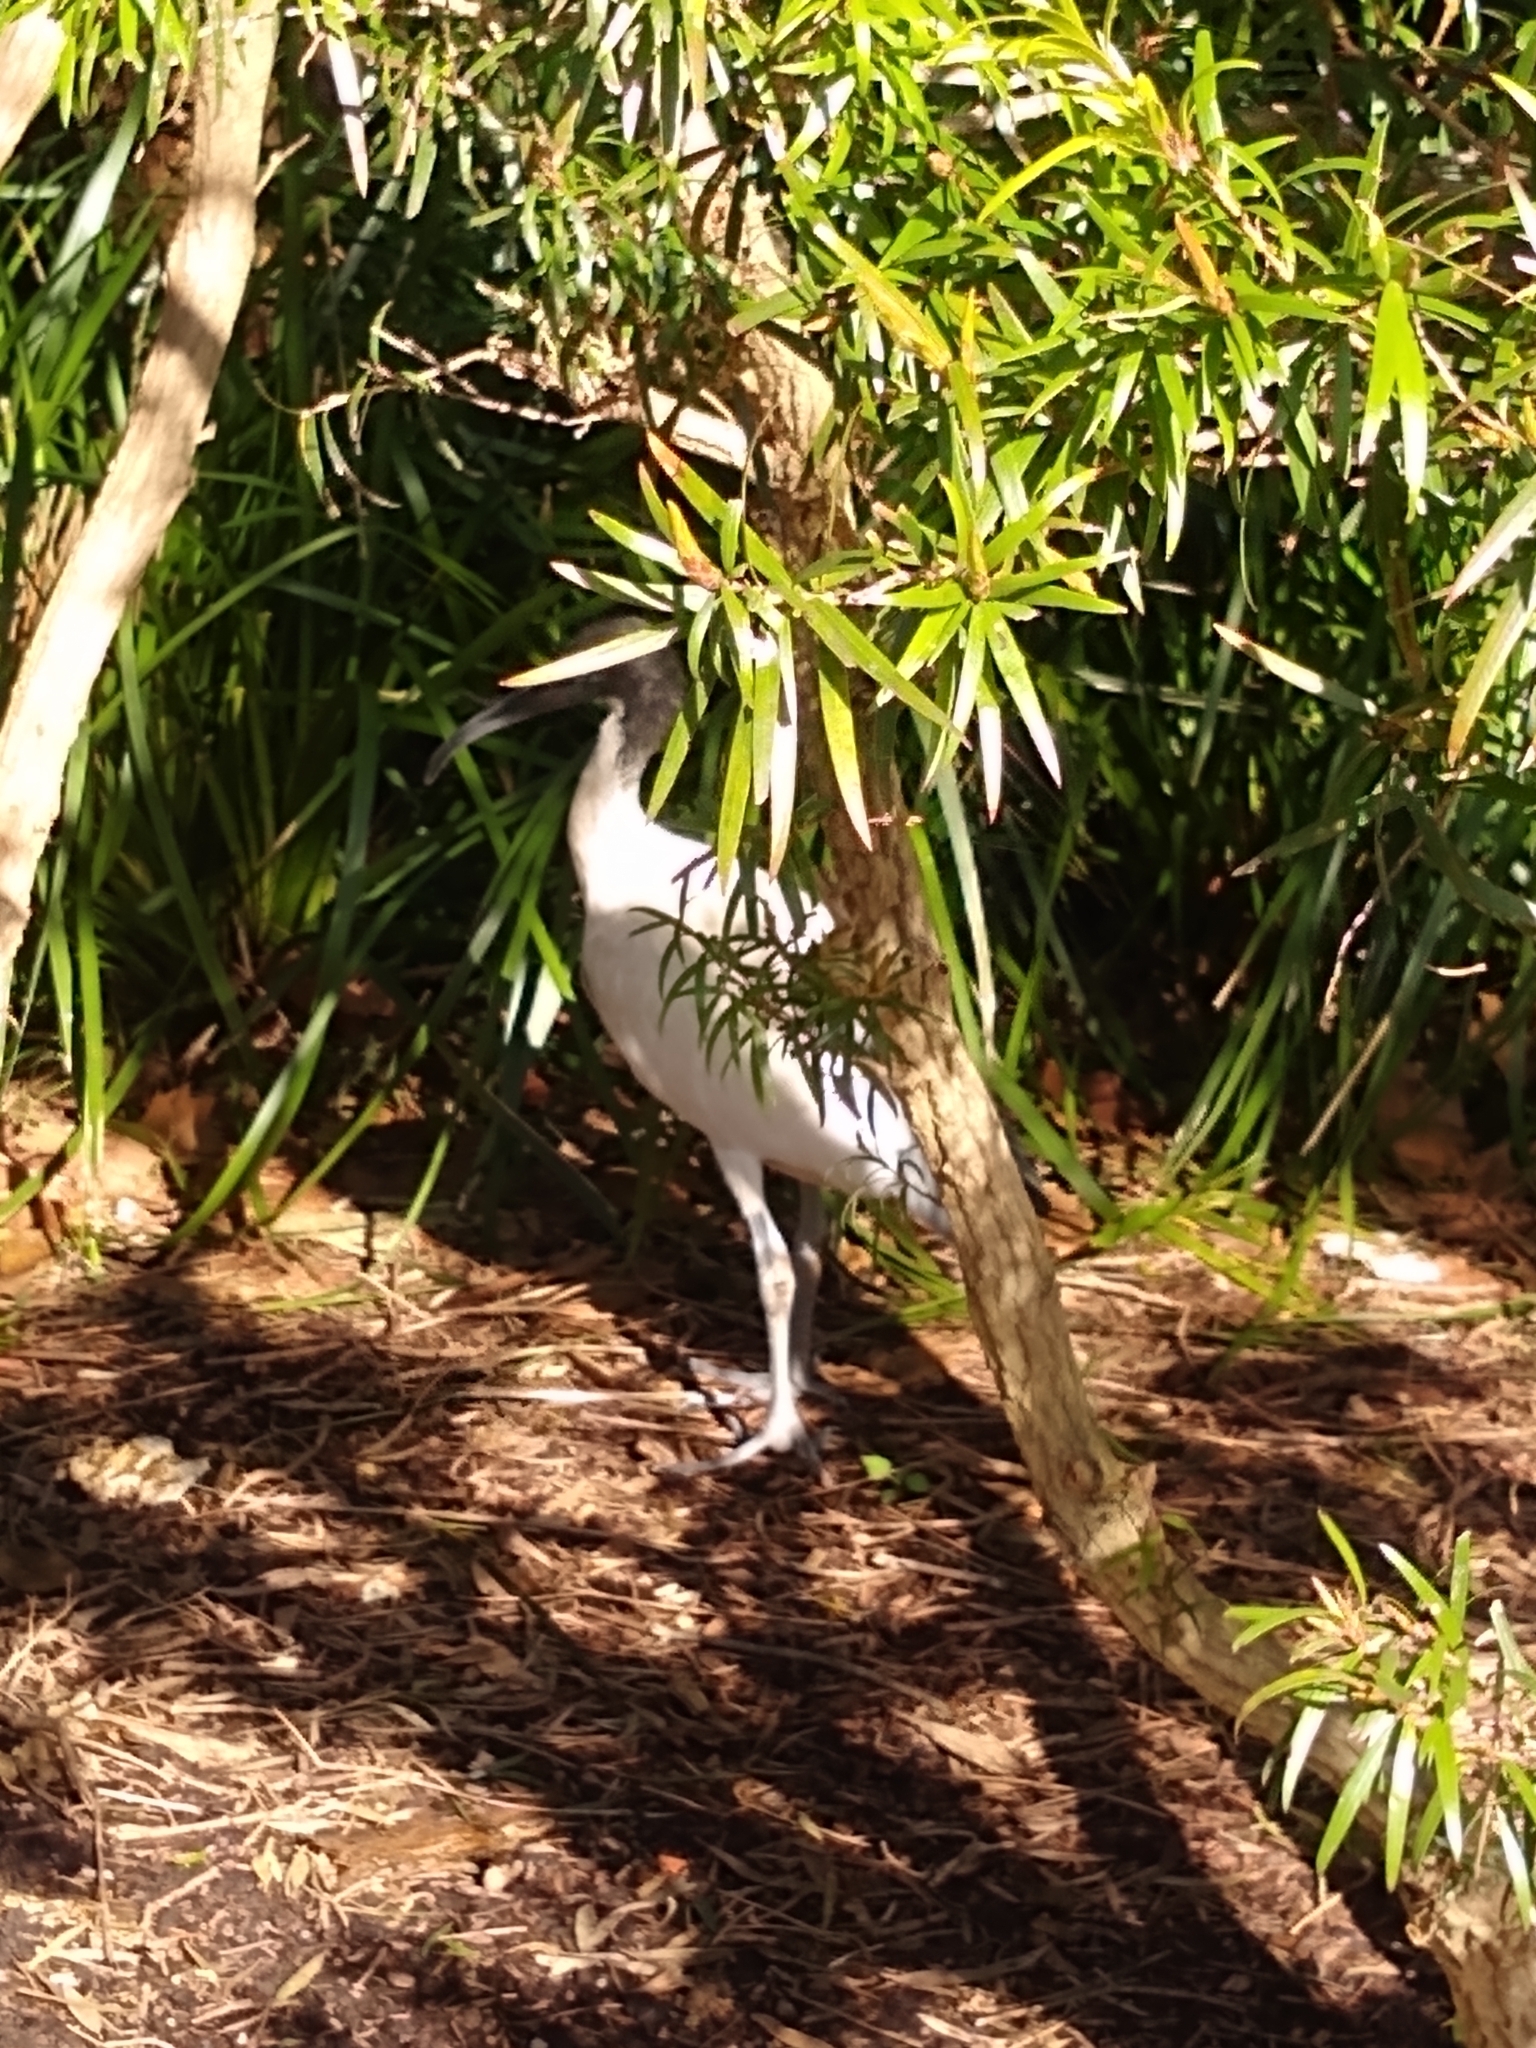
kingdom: Animalia
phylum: Chordata
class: Aves
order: Pelecaniformes
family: Threskiornithidae
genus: Threskiornis
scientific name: Threskiornis molucca
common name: Australian white ibis
